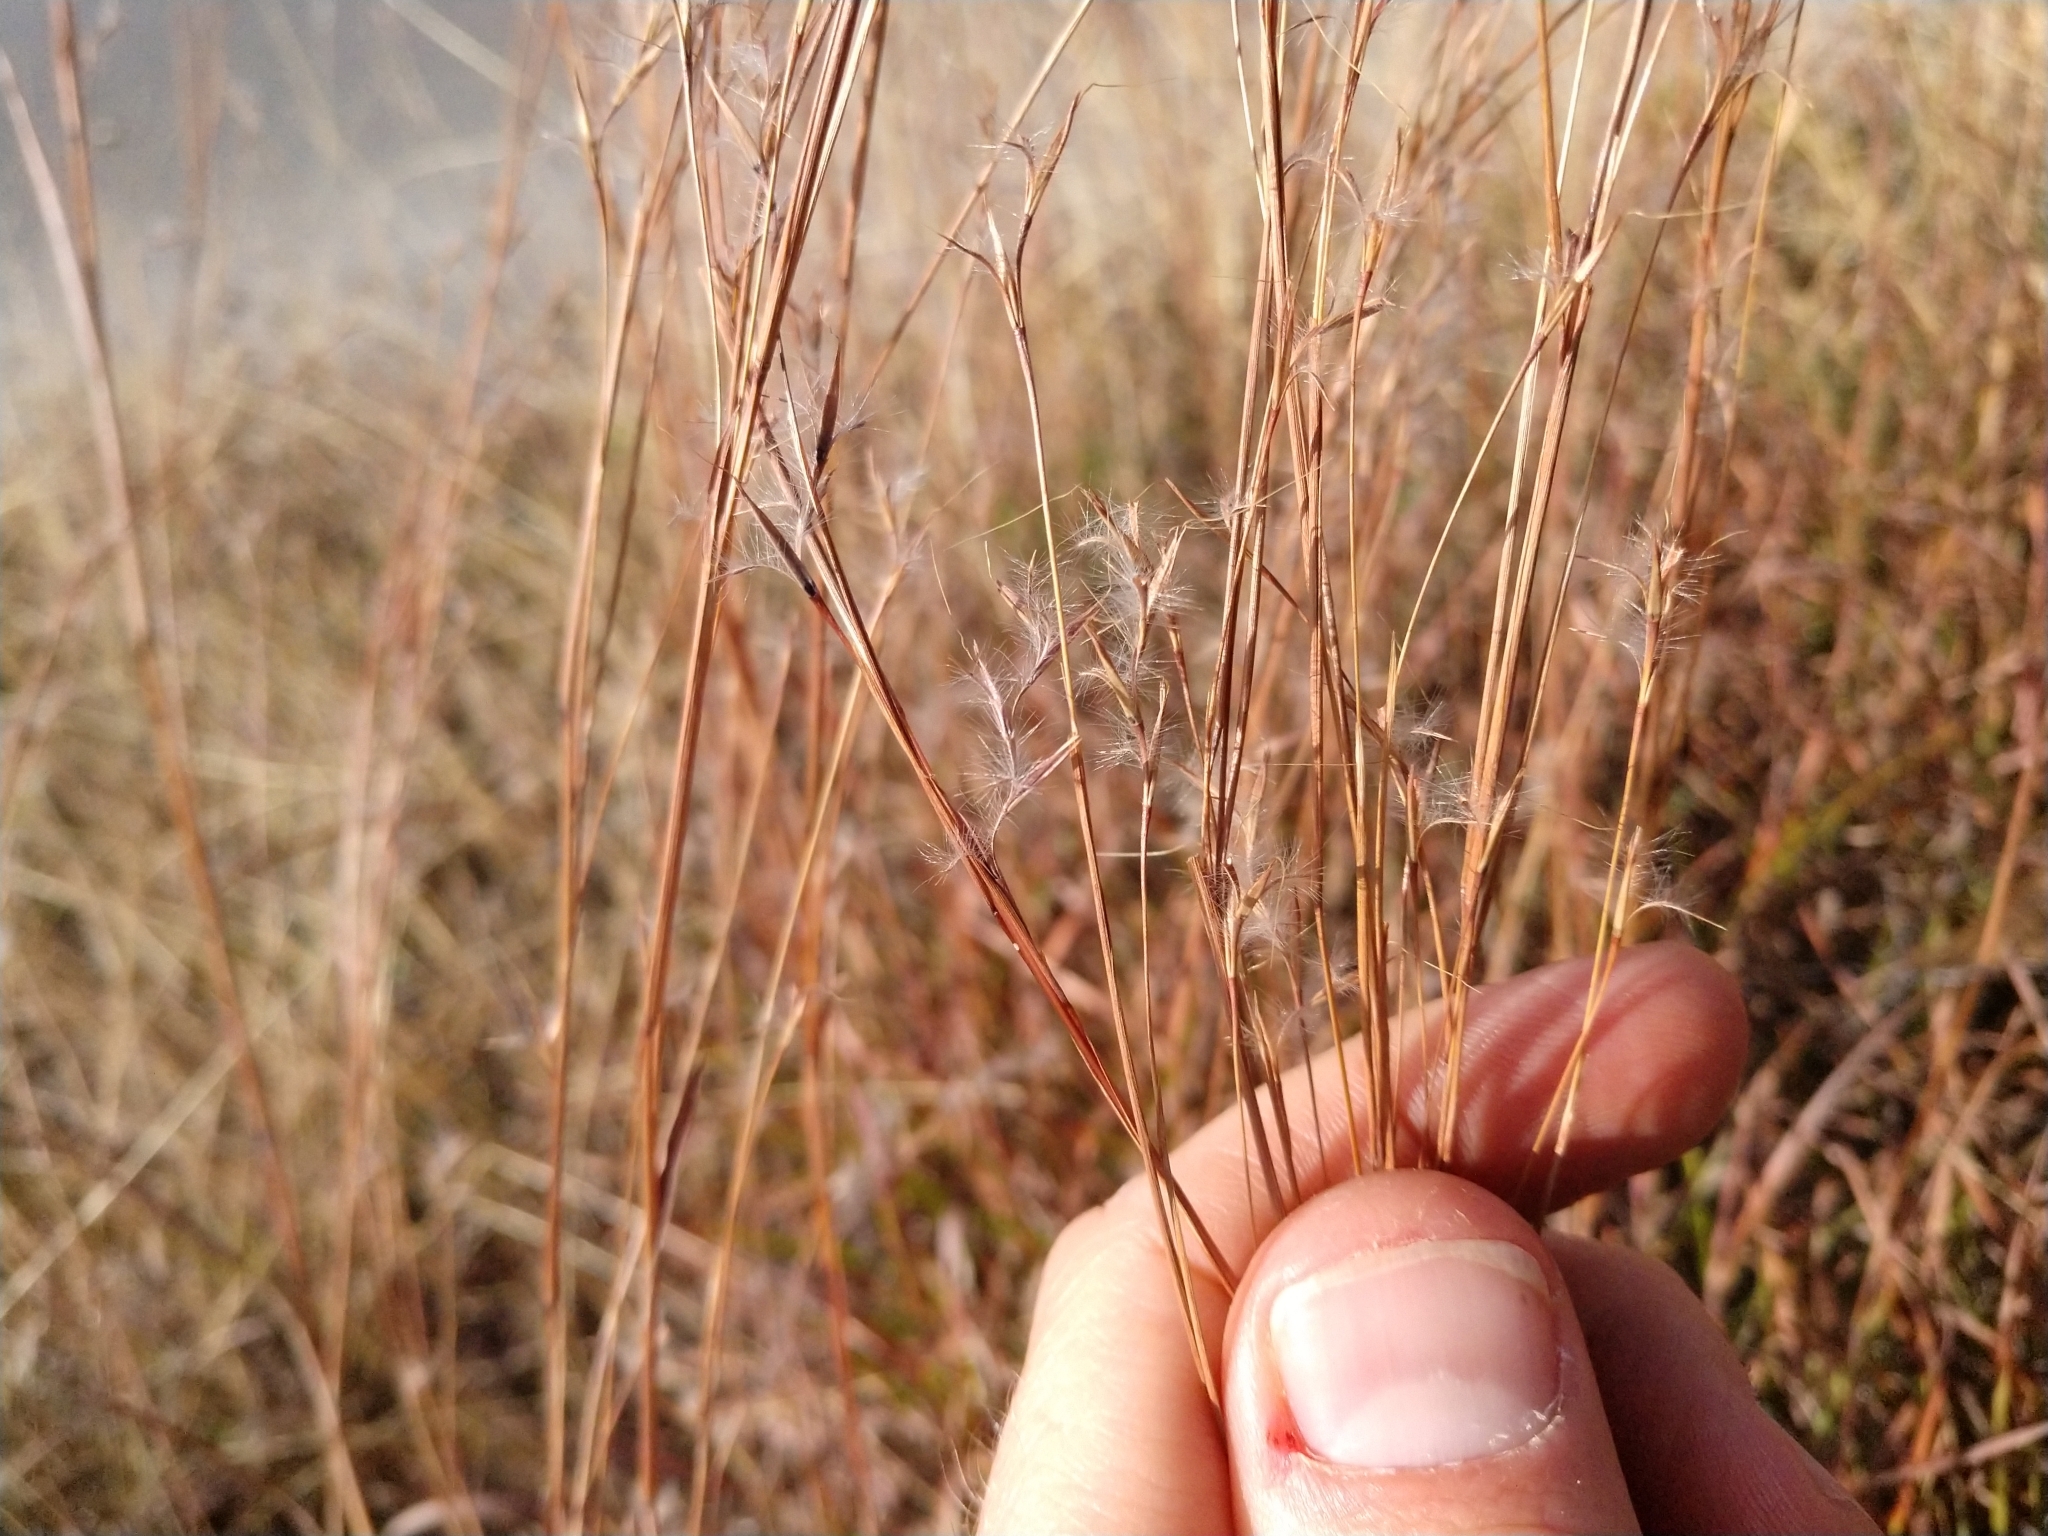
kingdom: Plantae
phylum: Tracheophyta
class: Liliopsida
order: Poales
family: Poaceae
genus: Schizachyrium
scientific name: Schizachyrium scoparium
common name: Little bluestem
